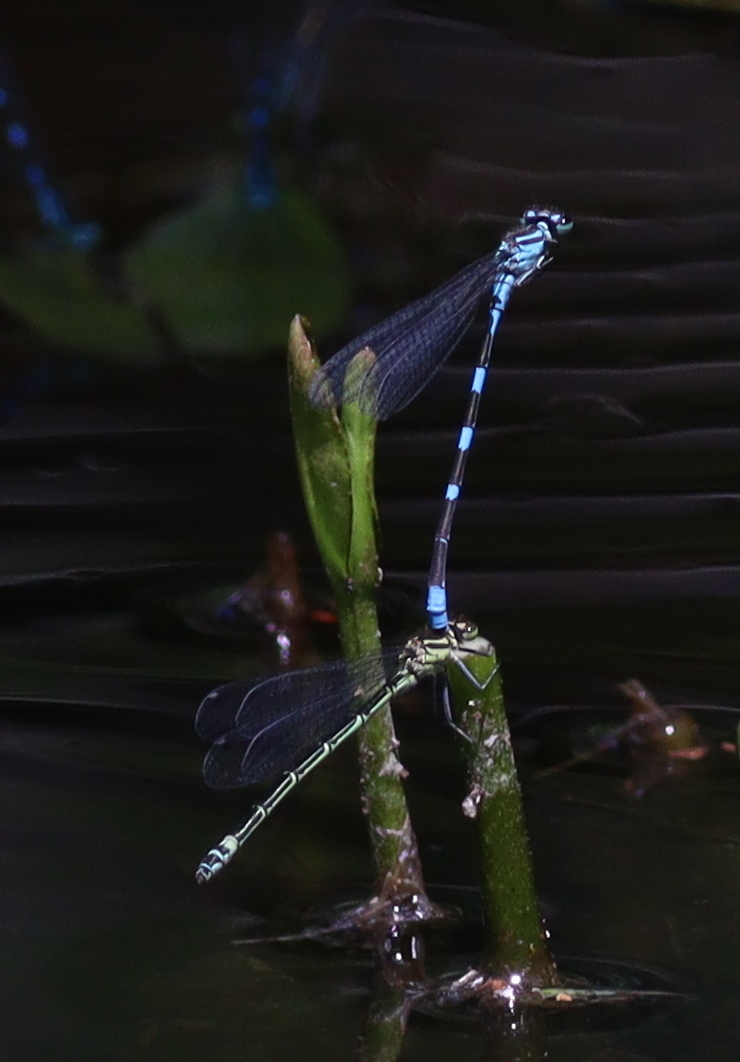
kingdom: Animalia
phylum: Arthropoda
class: Insecta
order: Odonata
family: Coenagrionidae
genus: Coenagrion
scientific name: Coenagrion lanceolatum
